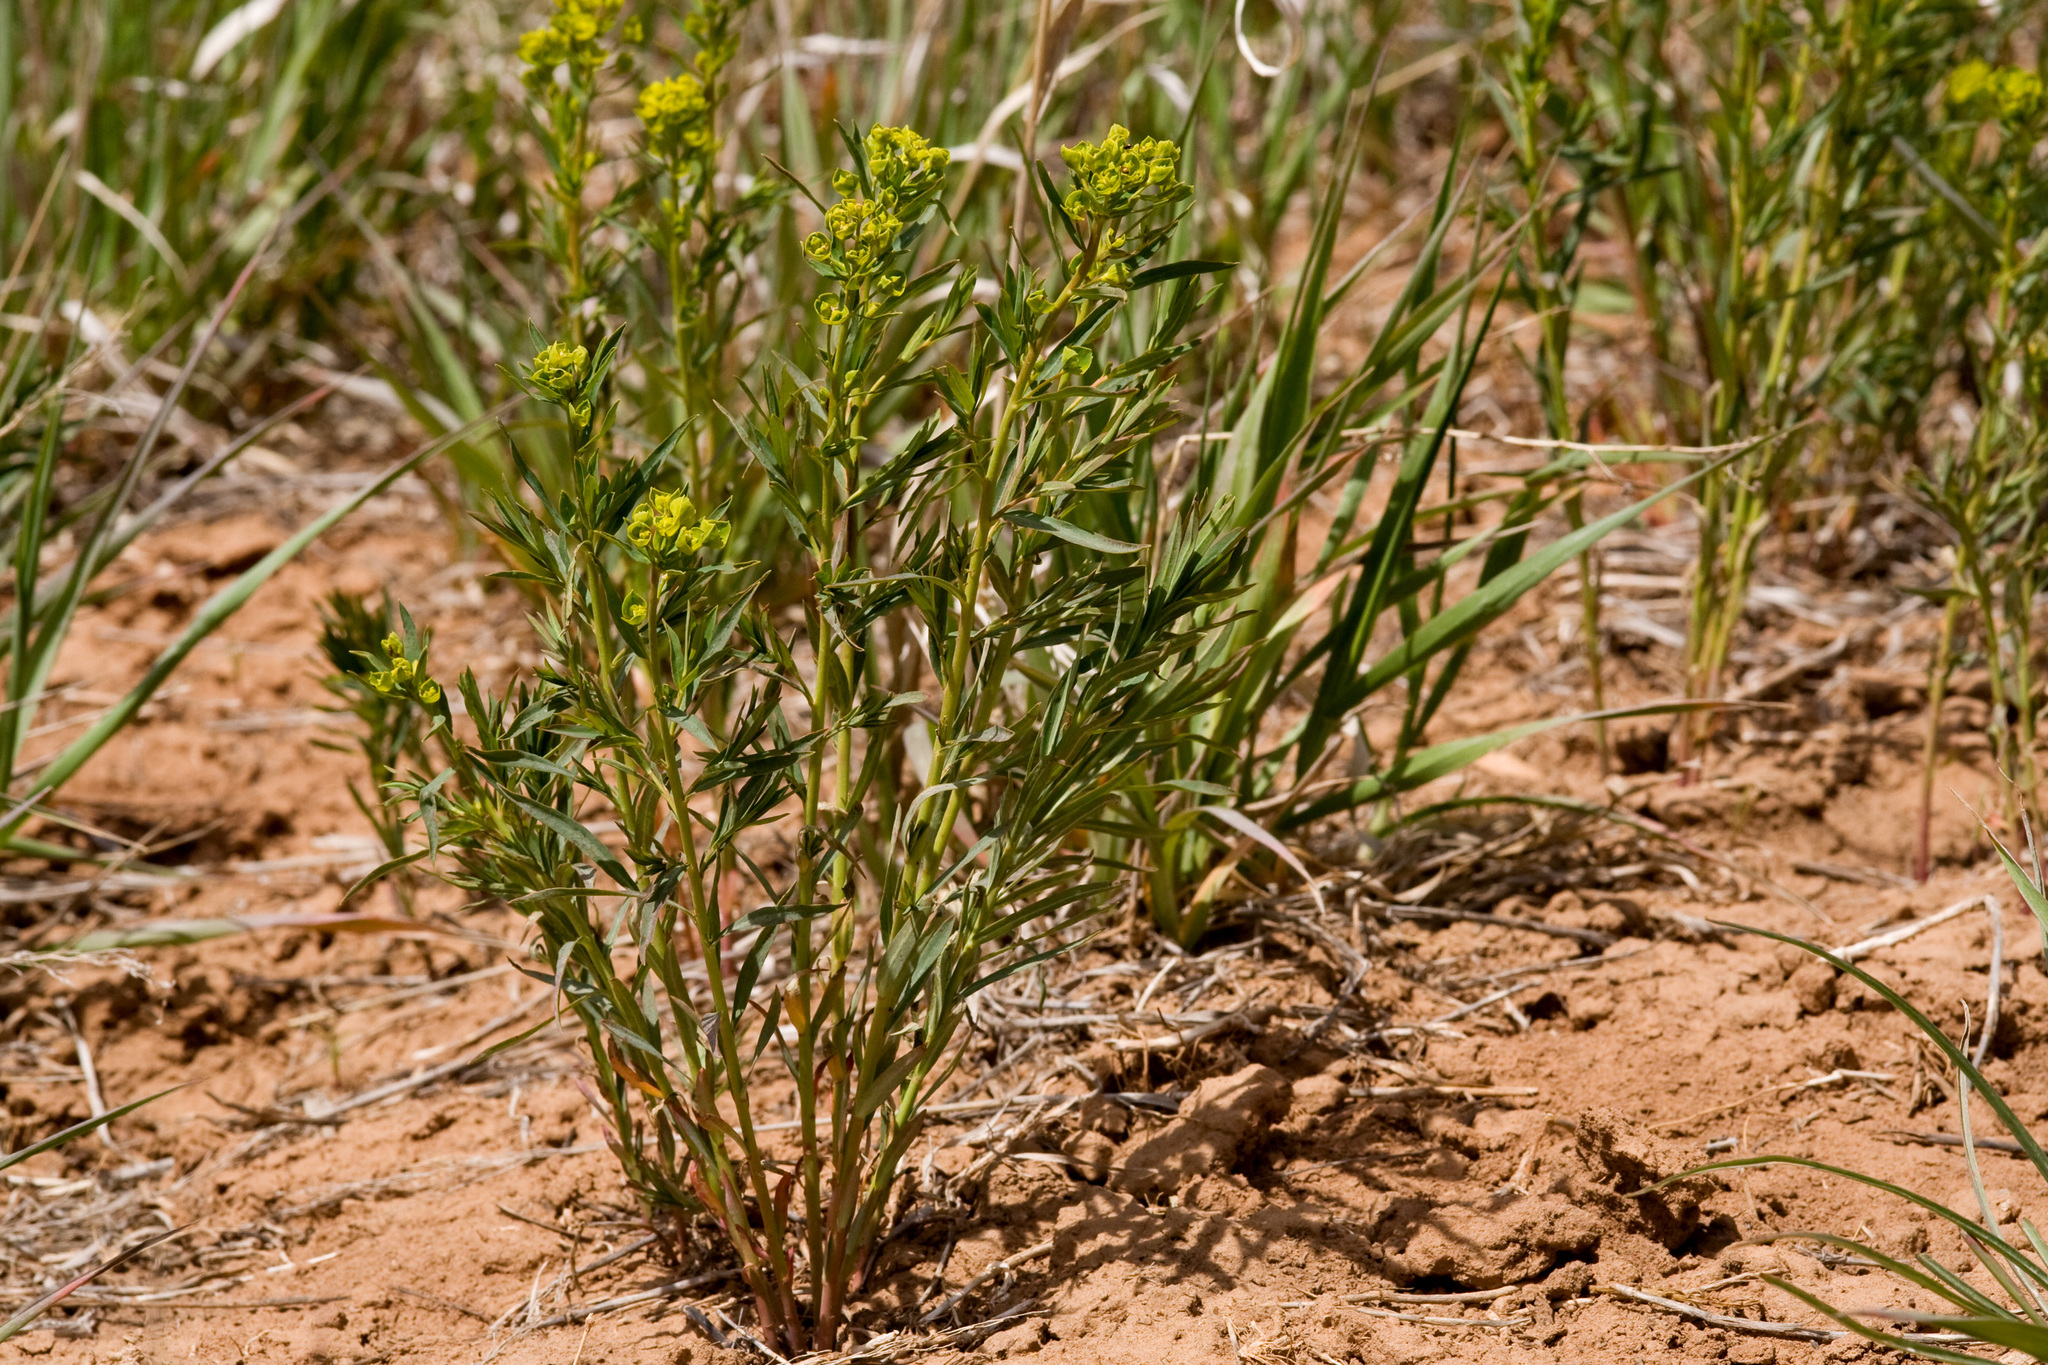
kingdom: Plantae
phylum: Tracheophyta
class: Magnoliopsida
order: Malpighiales
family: Euphorbiaceae
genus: Euphorbia
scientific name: Euphorbia esula
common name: Leafy spurge
